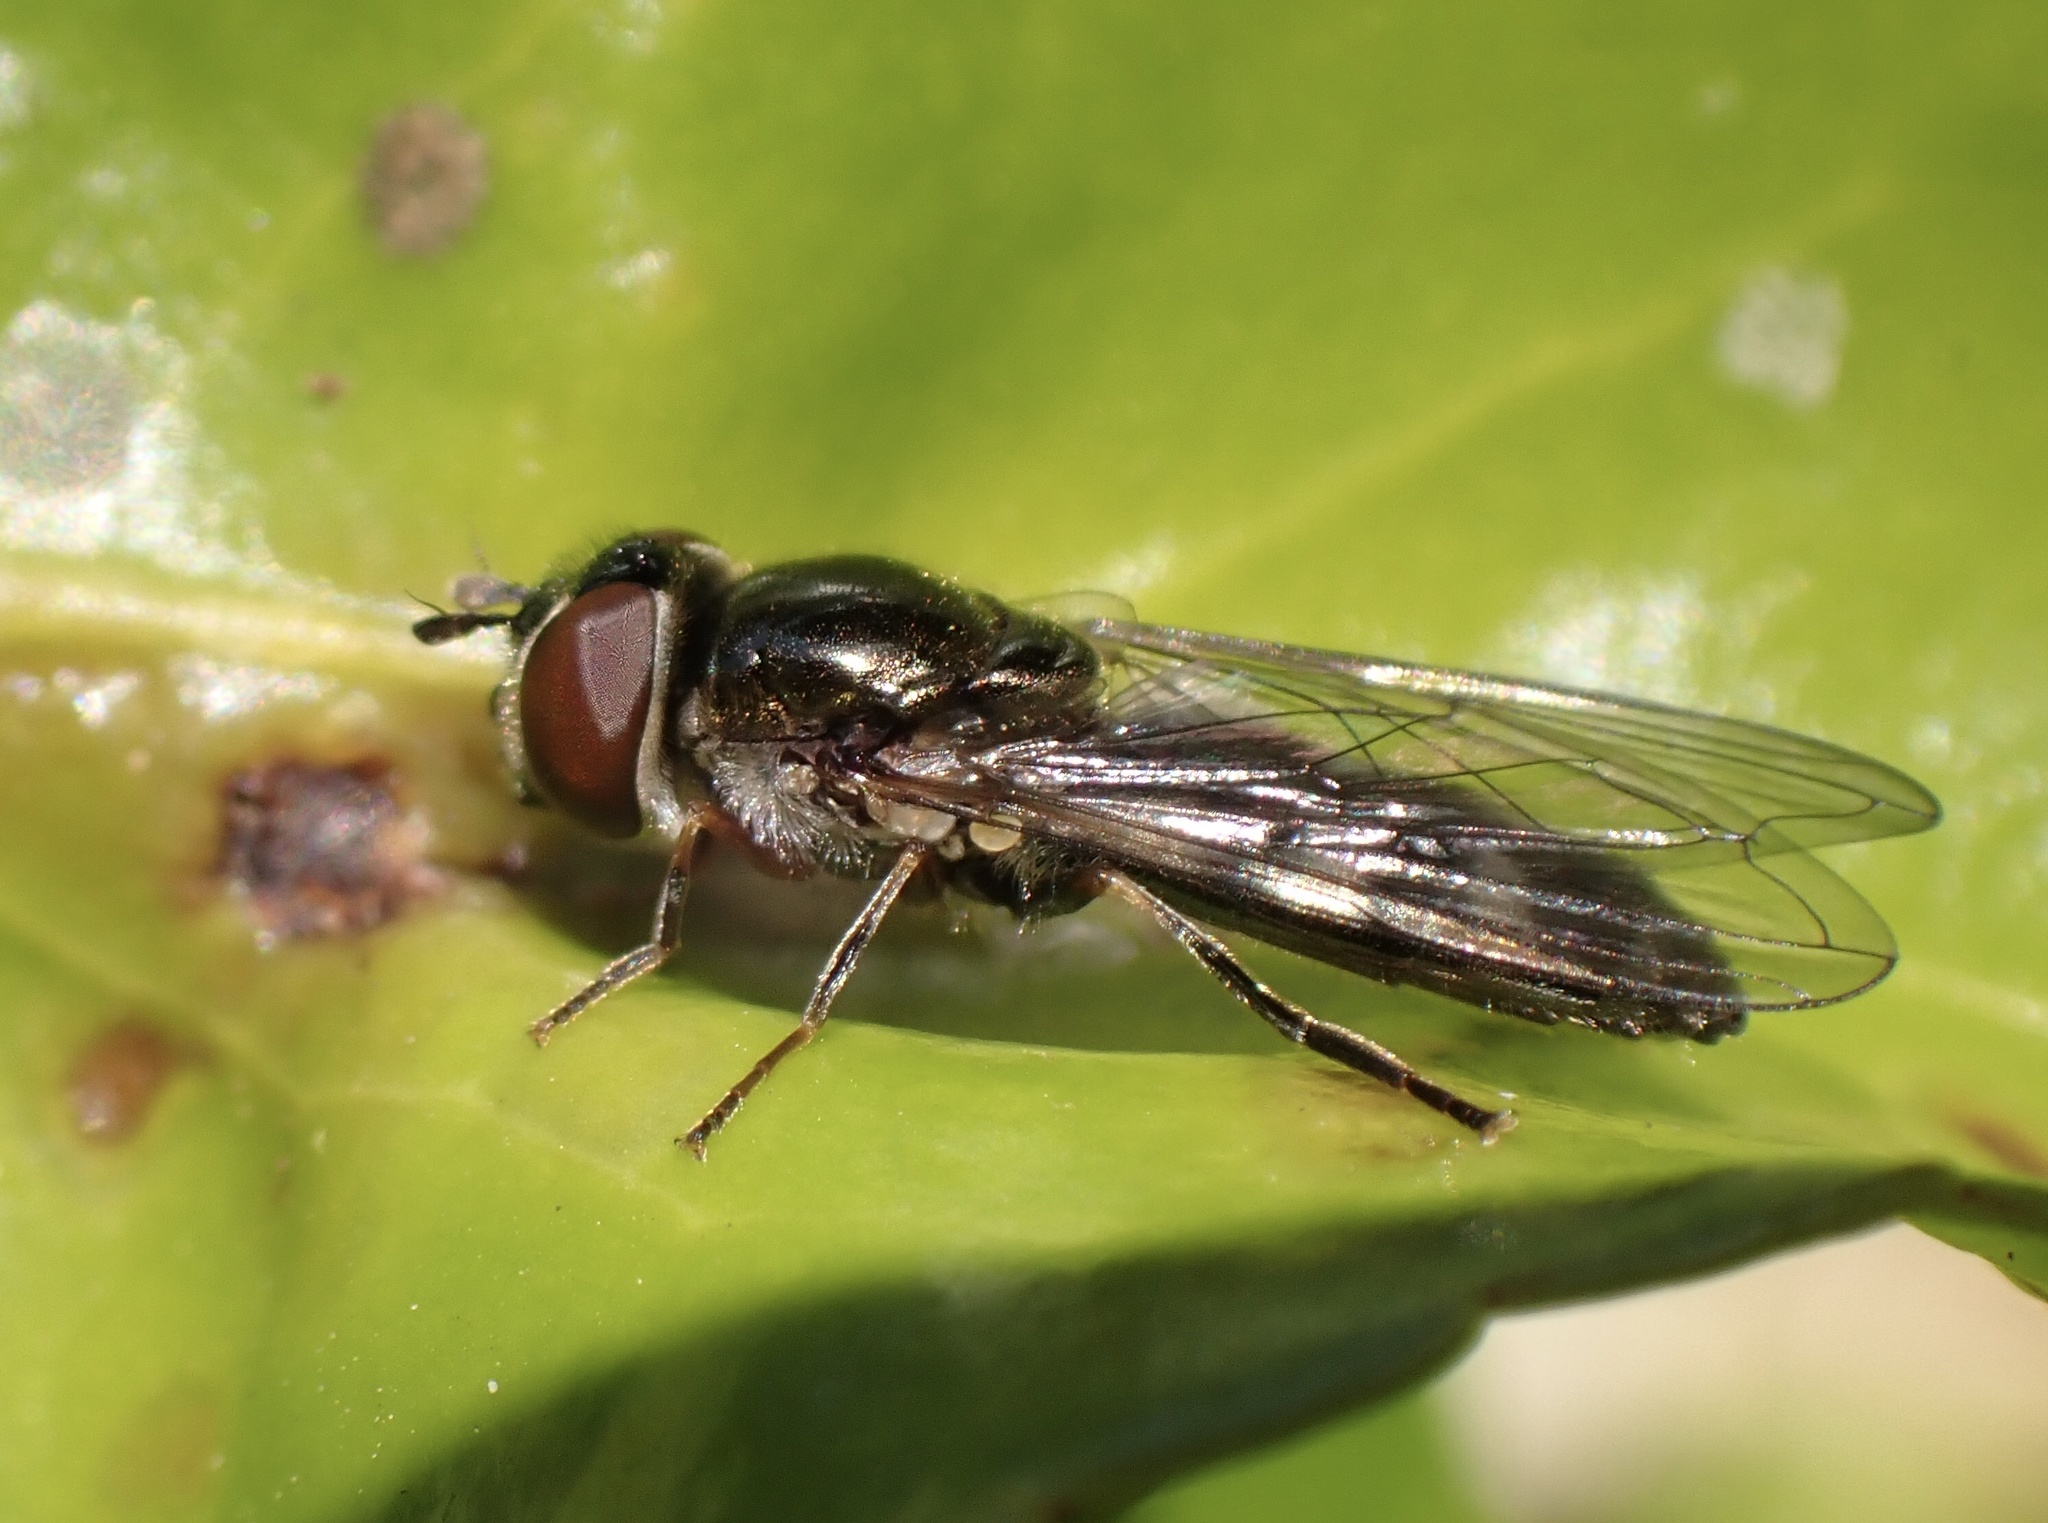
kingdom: Animalia
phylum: Arthropoda
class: Insecta
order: Diptera
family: Syrphidae
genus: Platycheirus
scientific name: Platycheirus albimanus
